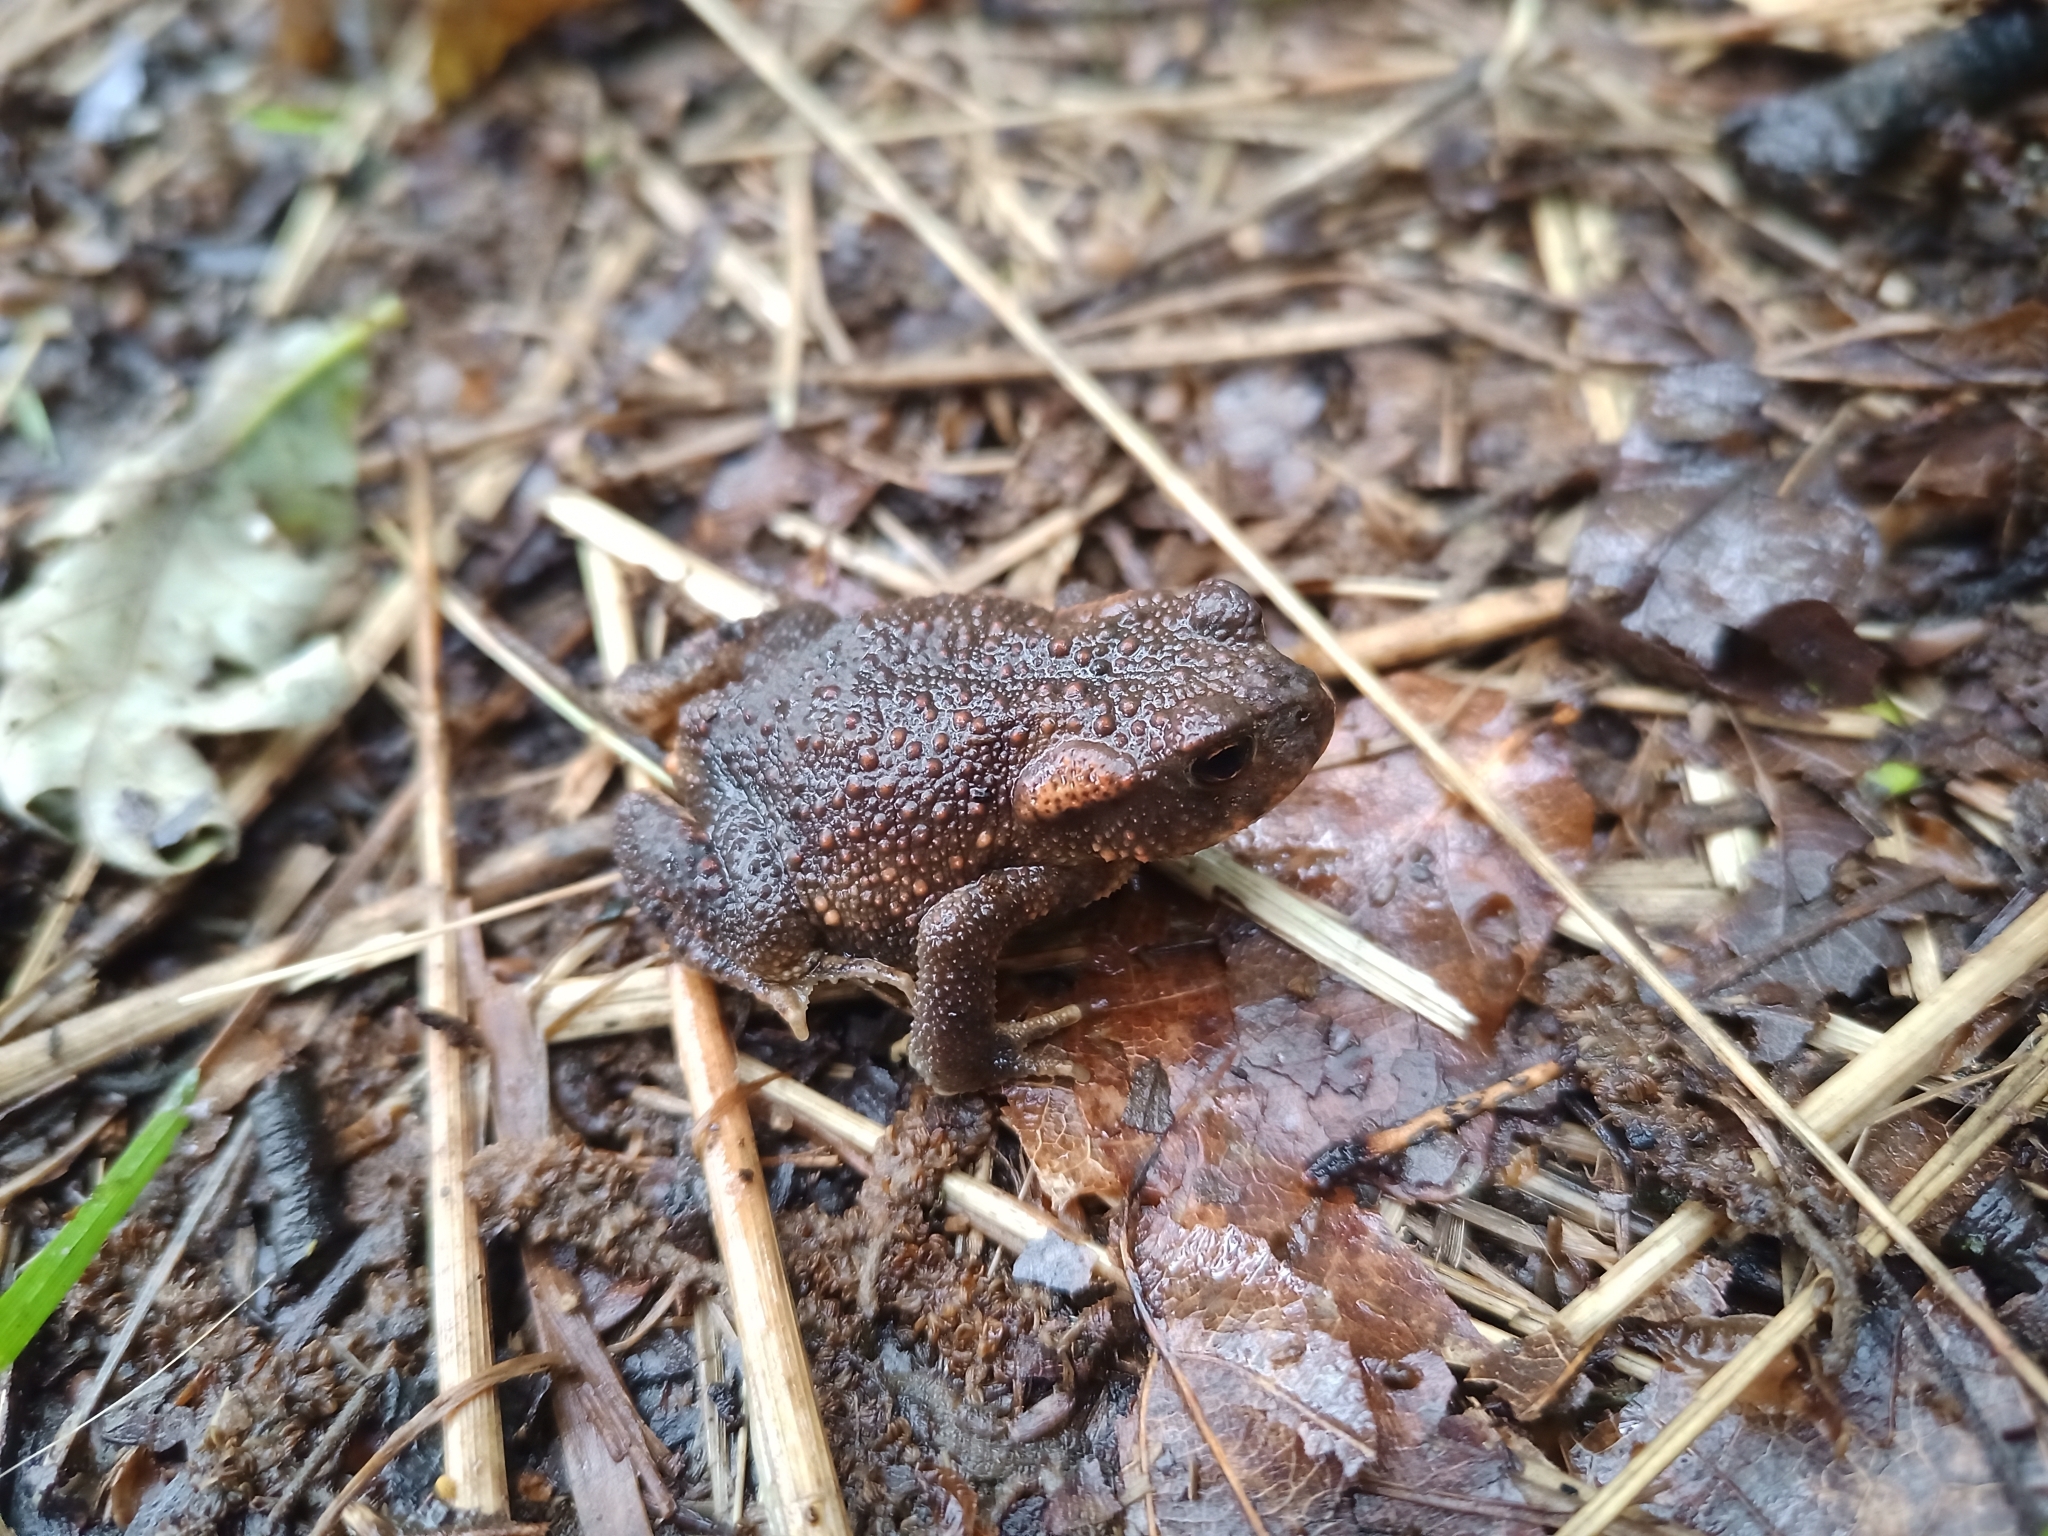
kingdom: Animalia
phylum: Chordata
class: Amphibia
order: Anura
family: Bufonidae
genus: Bufo
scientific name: Bufo spinosus
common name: Western common toad
